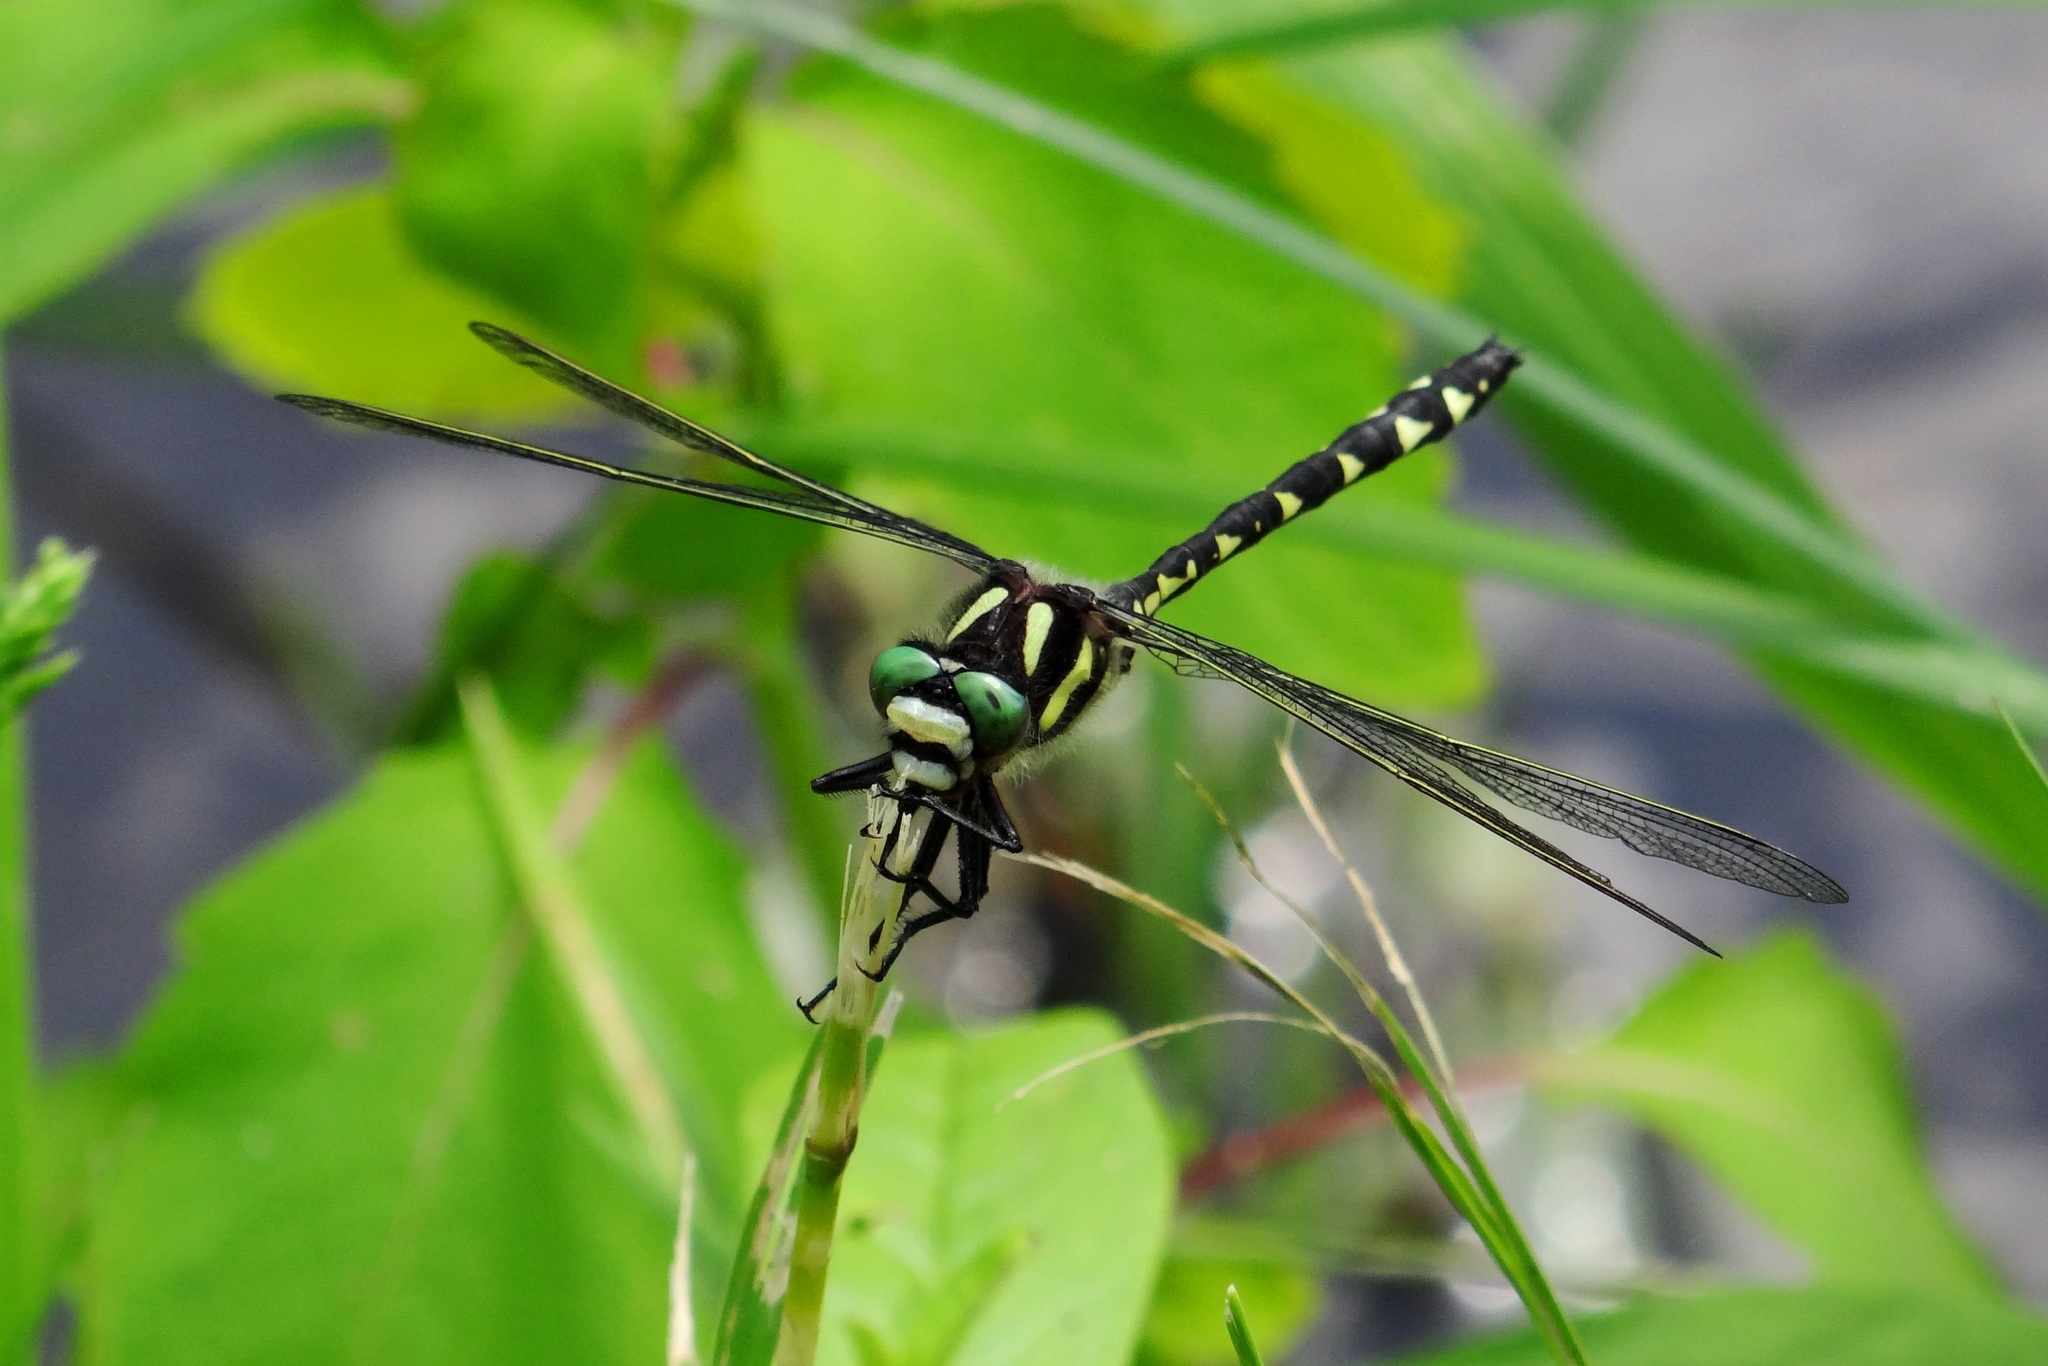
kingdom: Animalia
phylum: Arthropoda
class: Insecta
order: Odonata
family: Cordulegastridae
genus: Cordulegaster
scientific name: Cordulegaster diastatops
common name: Delta-spotted spiketail
